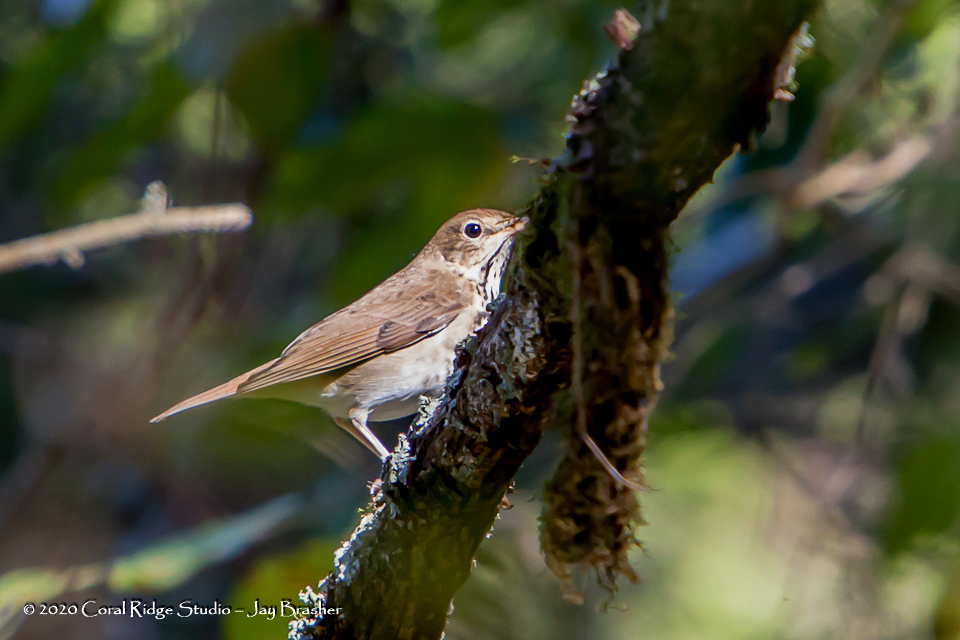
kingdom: Animalia
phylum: Chordata
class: Aves
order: Passeriformes
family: Turdidae
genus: Catharus
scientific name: Catharus guttatus
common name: Hermit thrush
